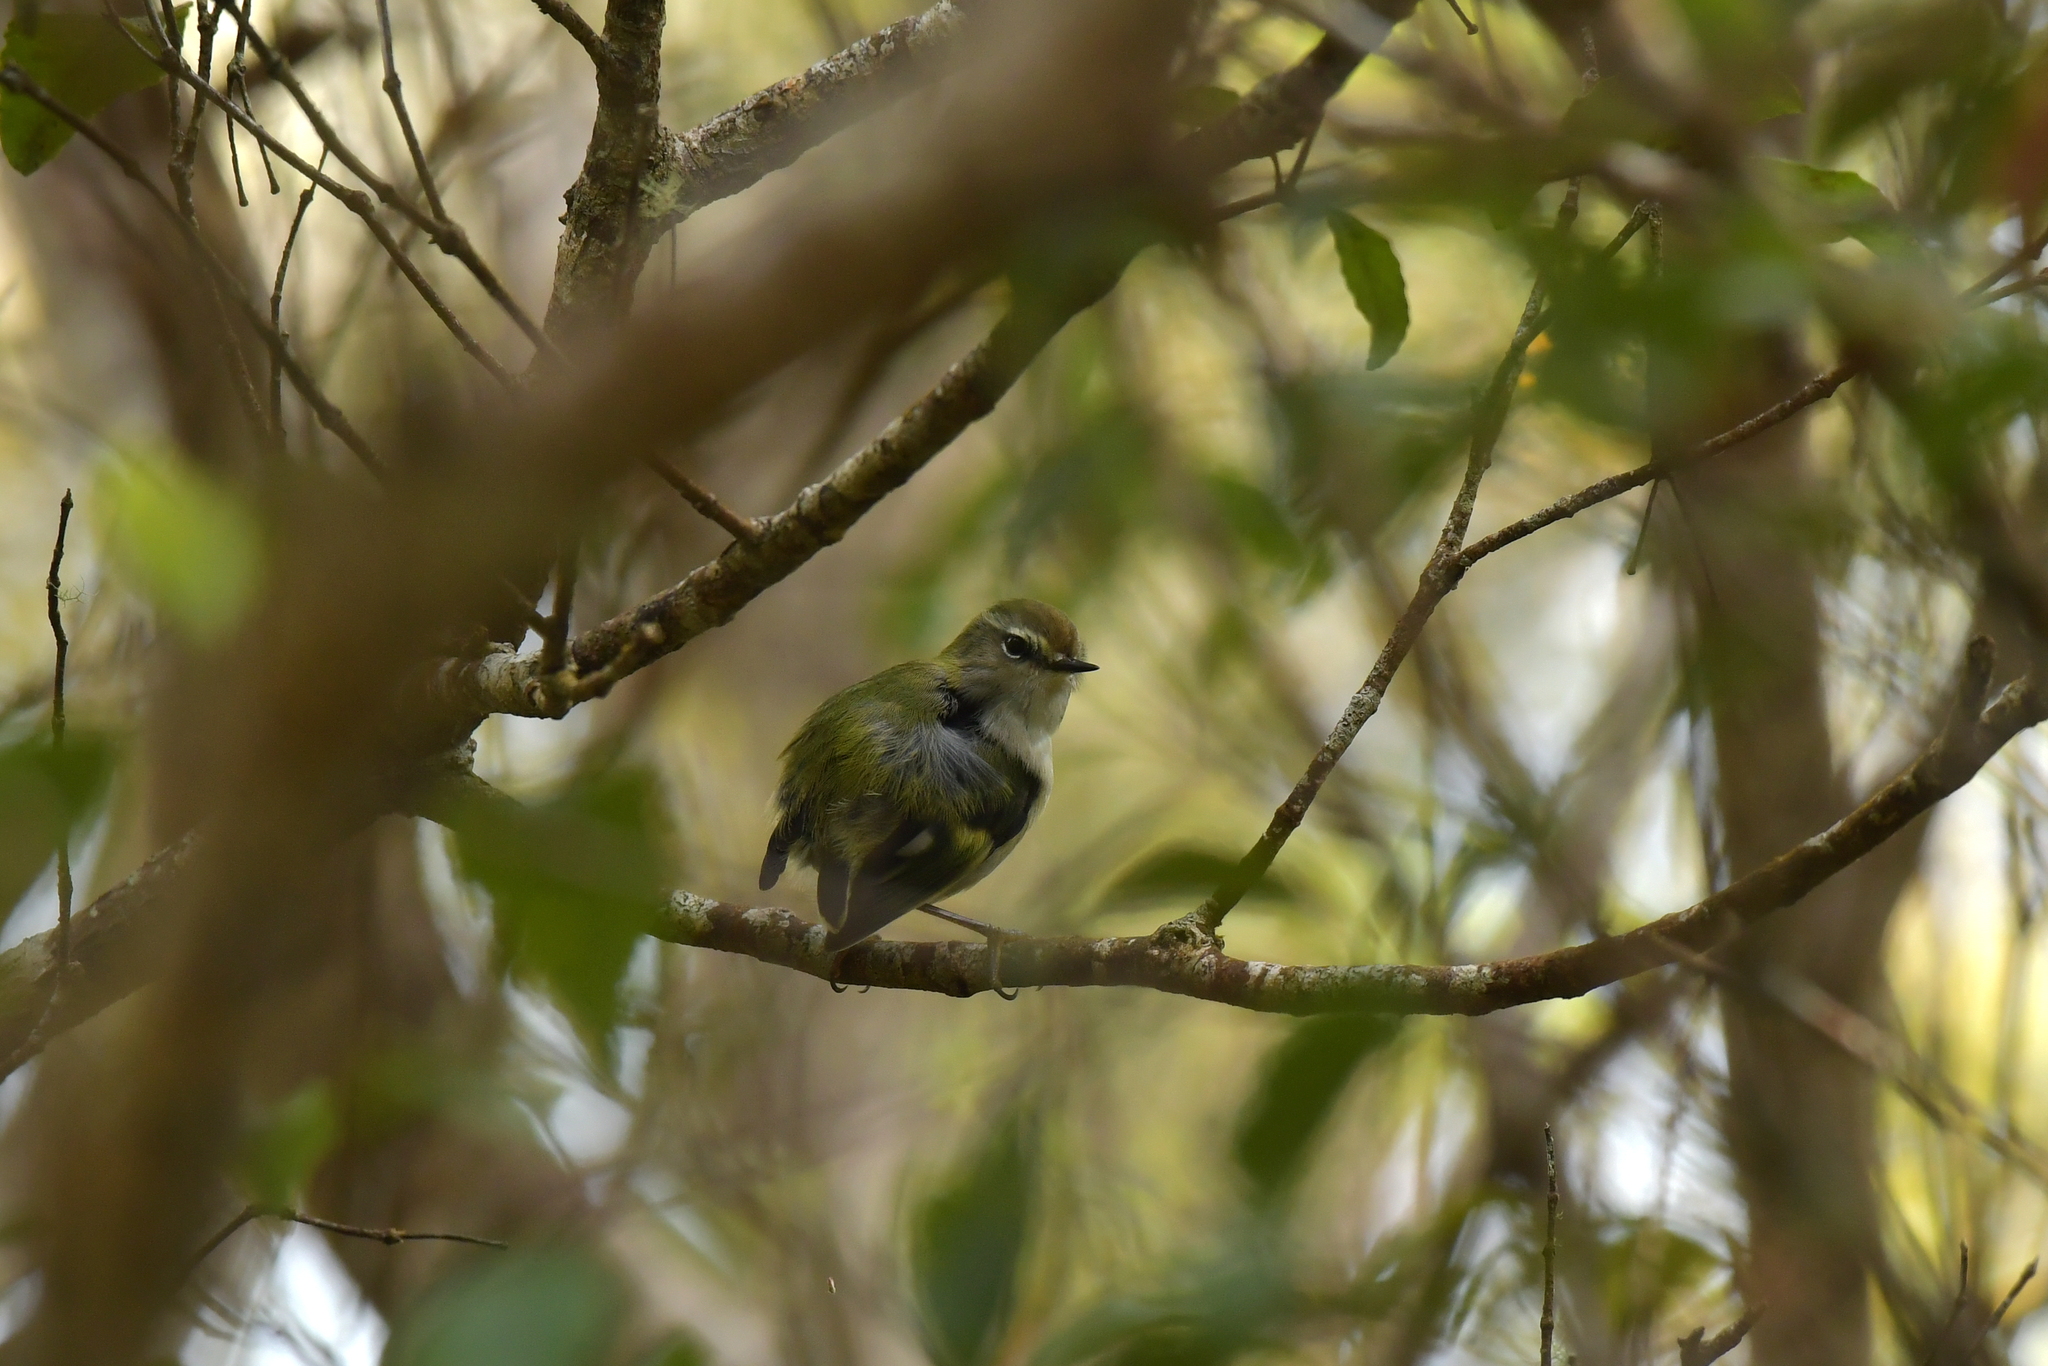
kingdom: Animalia
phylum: Chordata
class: Aves
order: Passeriformes
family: Acanthisittidae
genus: Acanthisitta
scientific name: Acanthisitta chloris
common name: Rifleman
